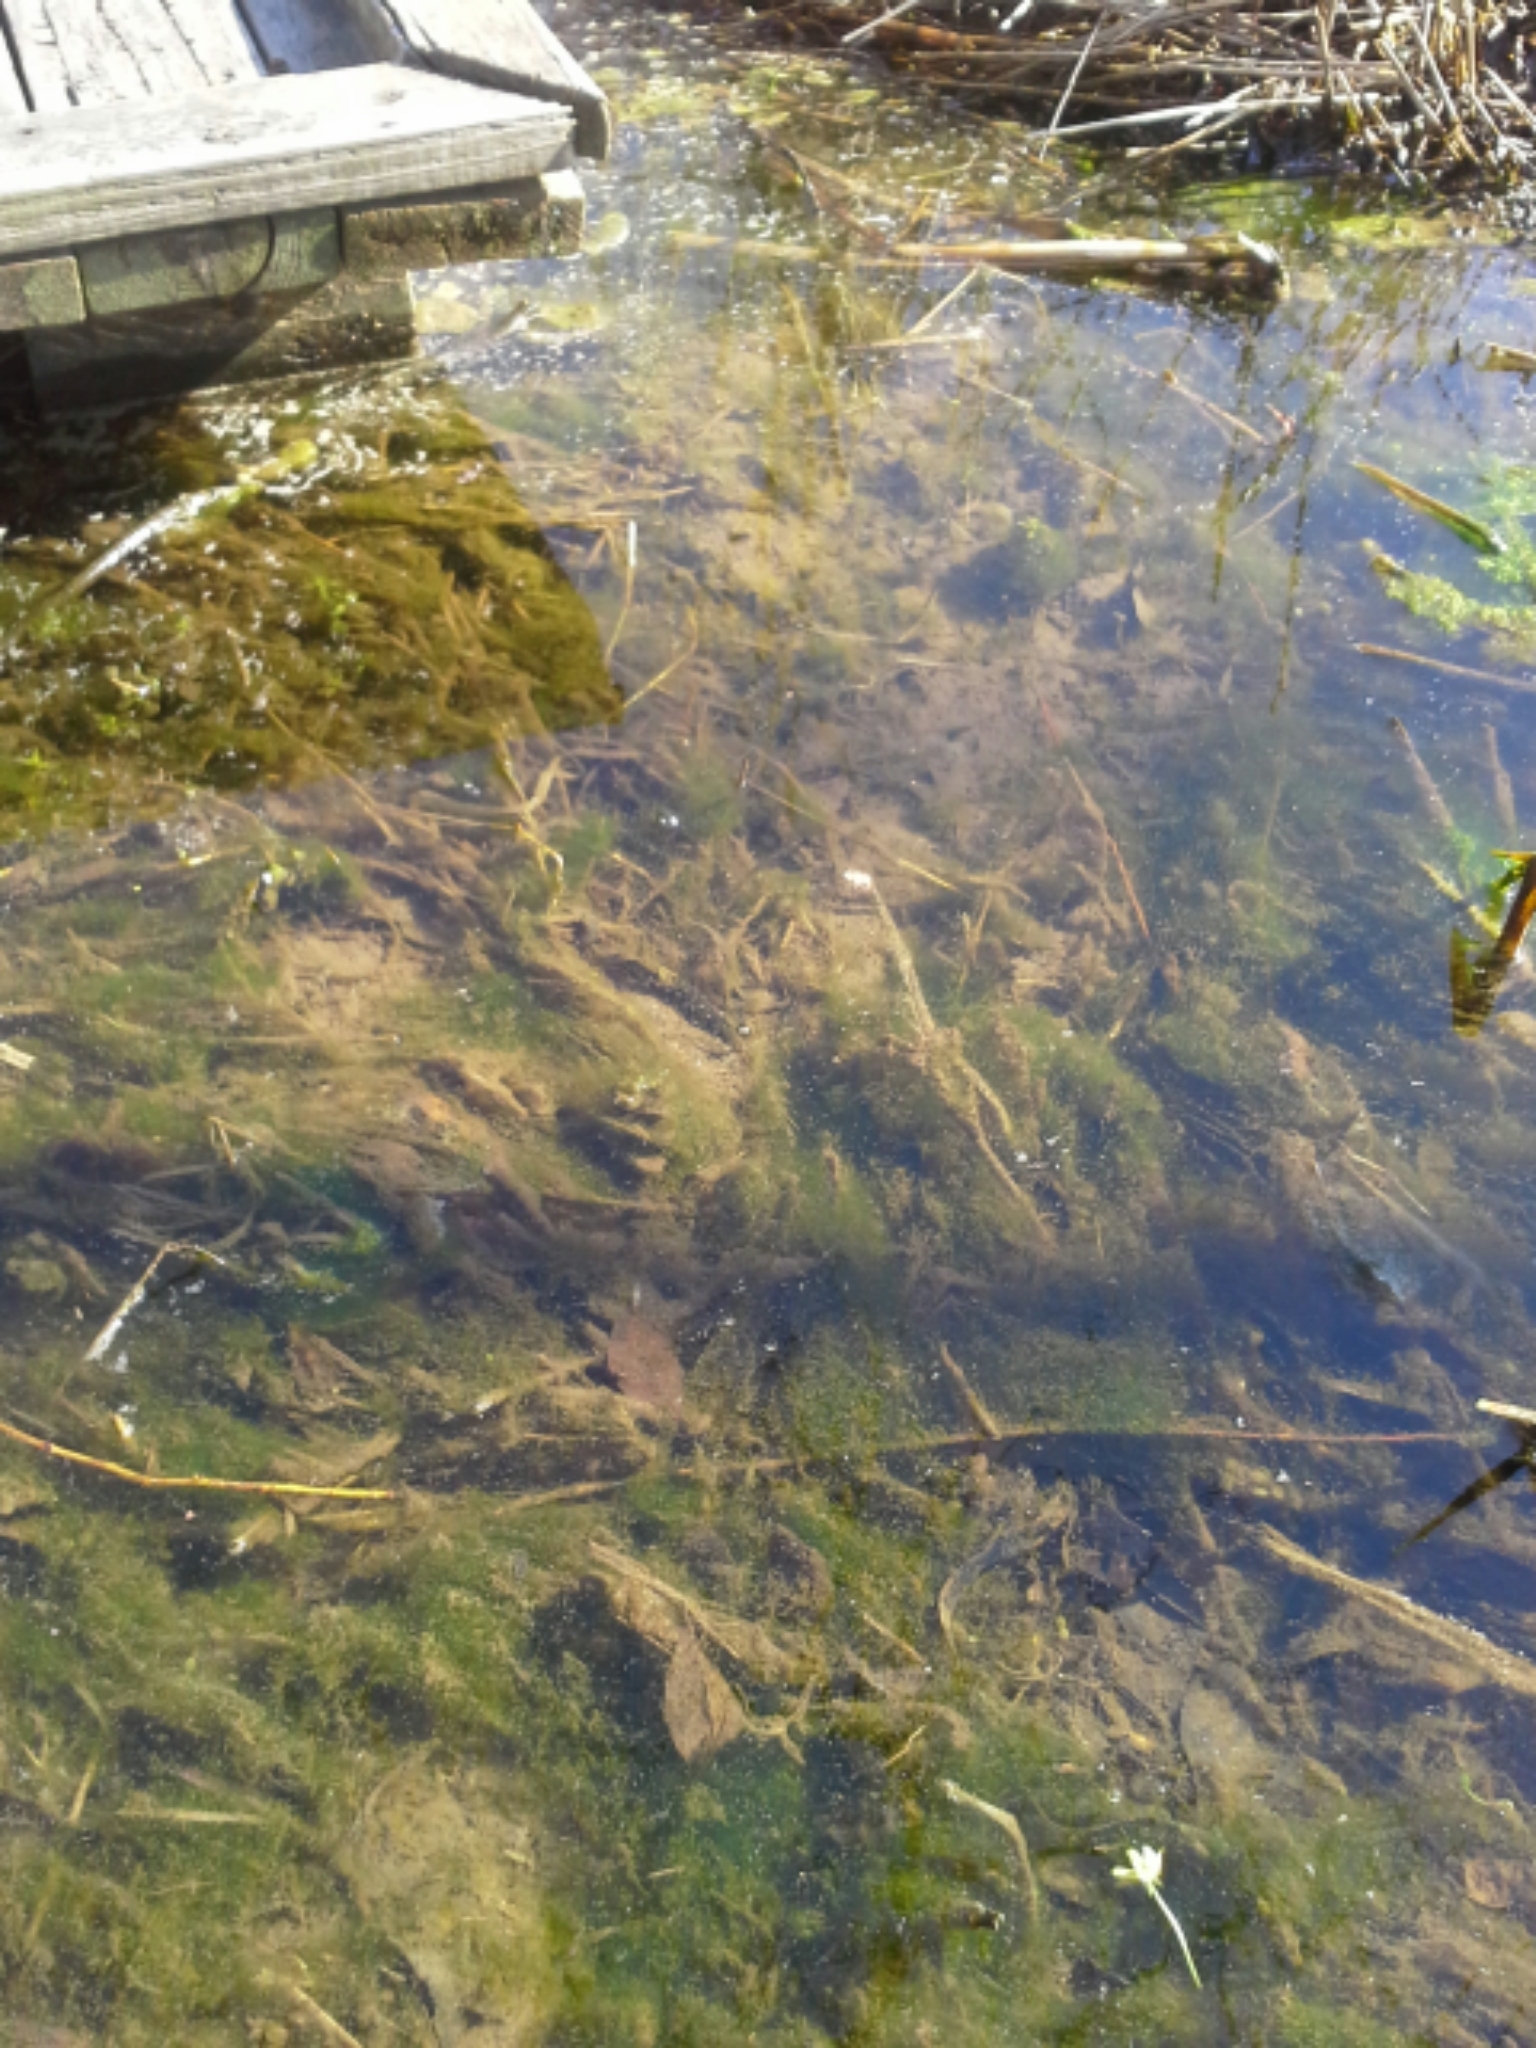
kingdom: Animalia
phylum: Chordata
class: Amphibia
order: Caudata
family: Salamandridae
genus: Notophthalmus
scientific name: Notophthalmus viridescens
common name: Eastern newt
